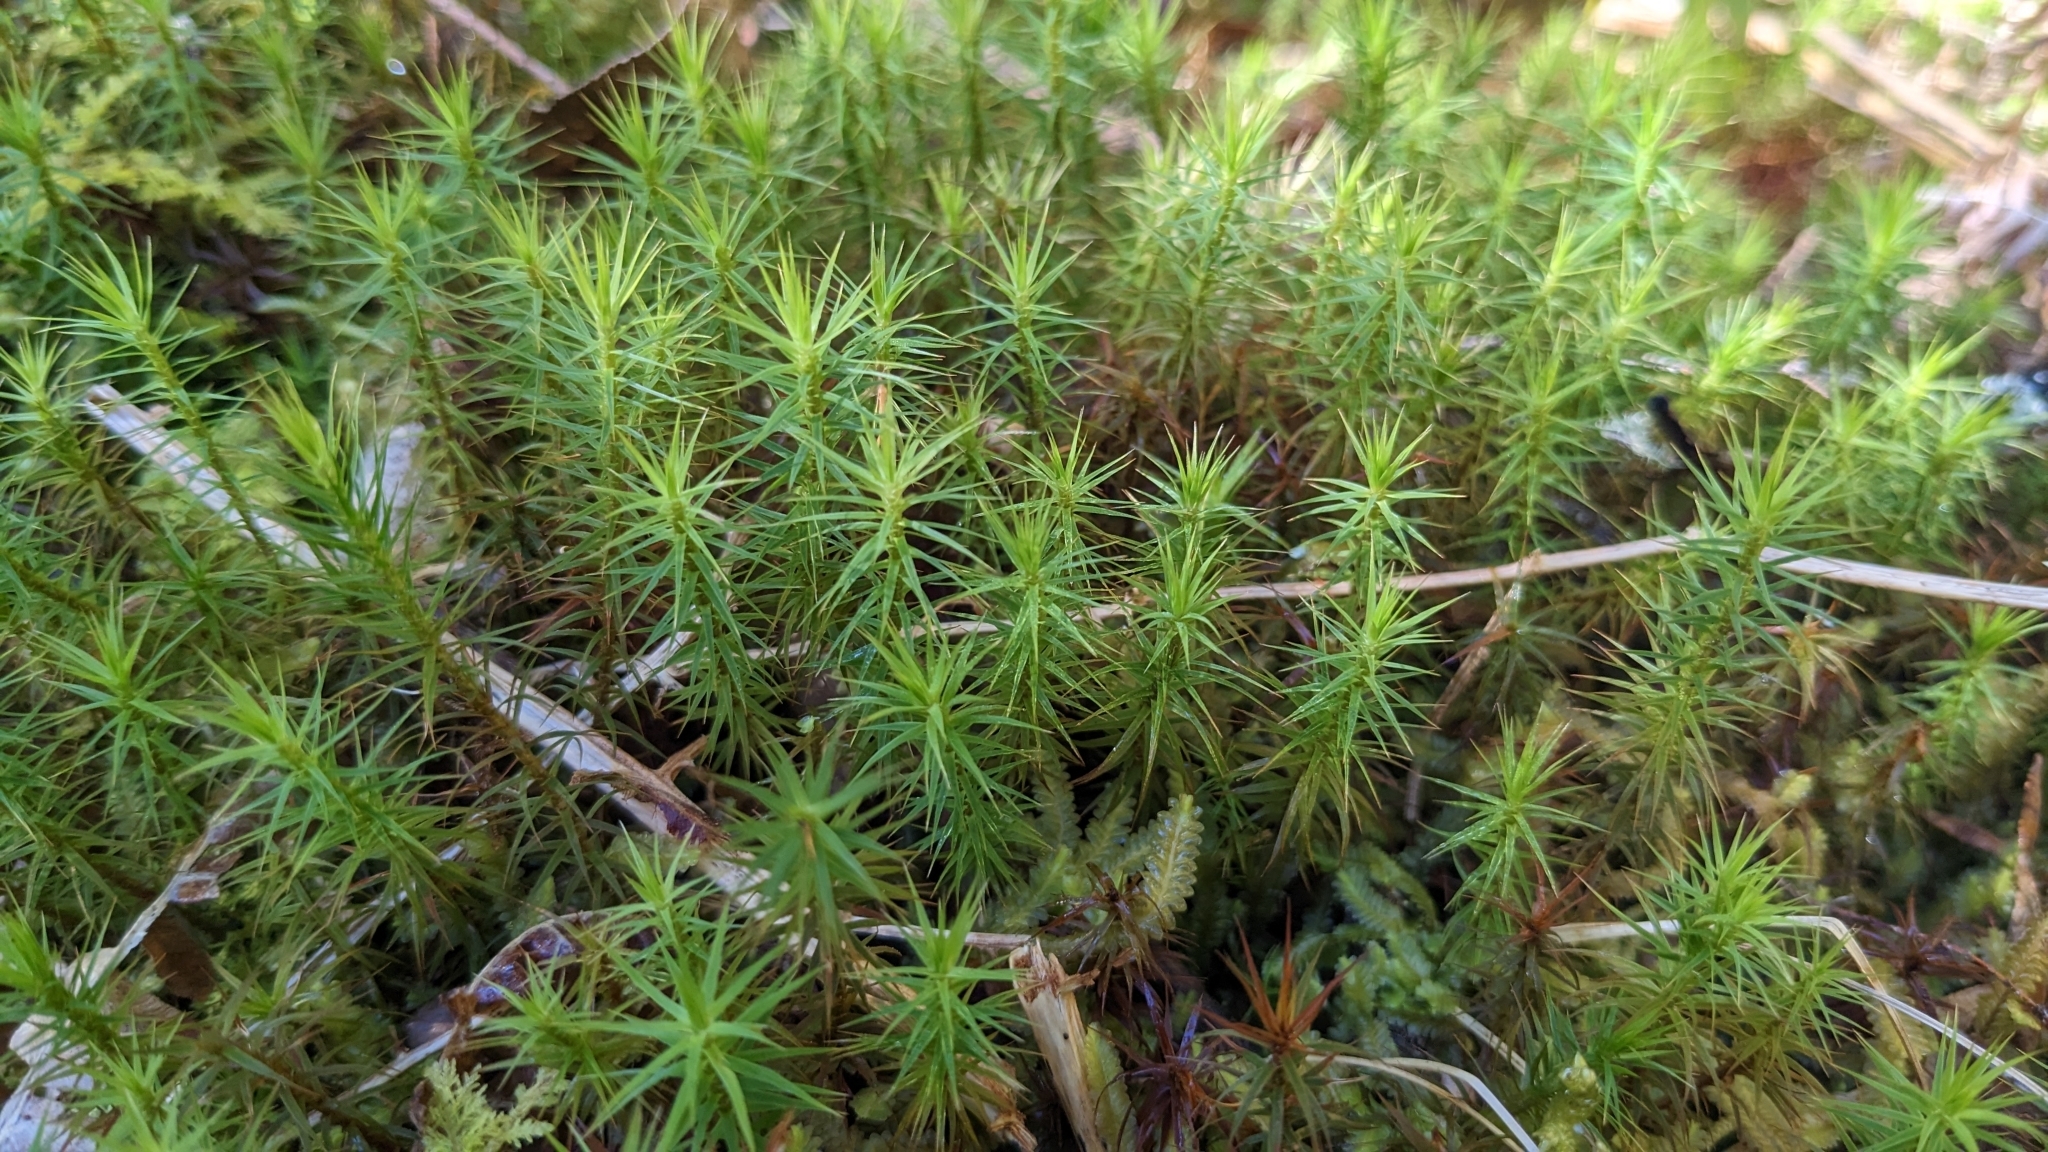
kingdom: Plantae
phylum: Bryophyta
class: Polytrichopsida
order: Polytrichales
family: Polytrichaceae
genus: Polytrichum
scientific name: Polytrichum formosum
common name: Bank haircap moss
